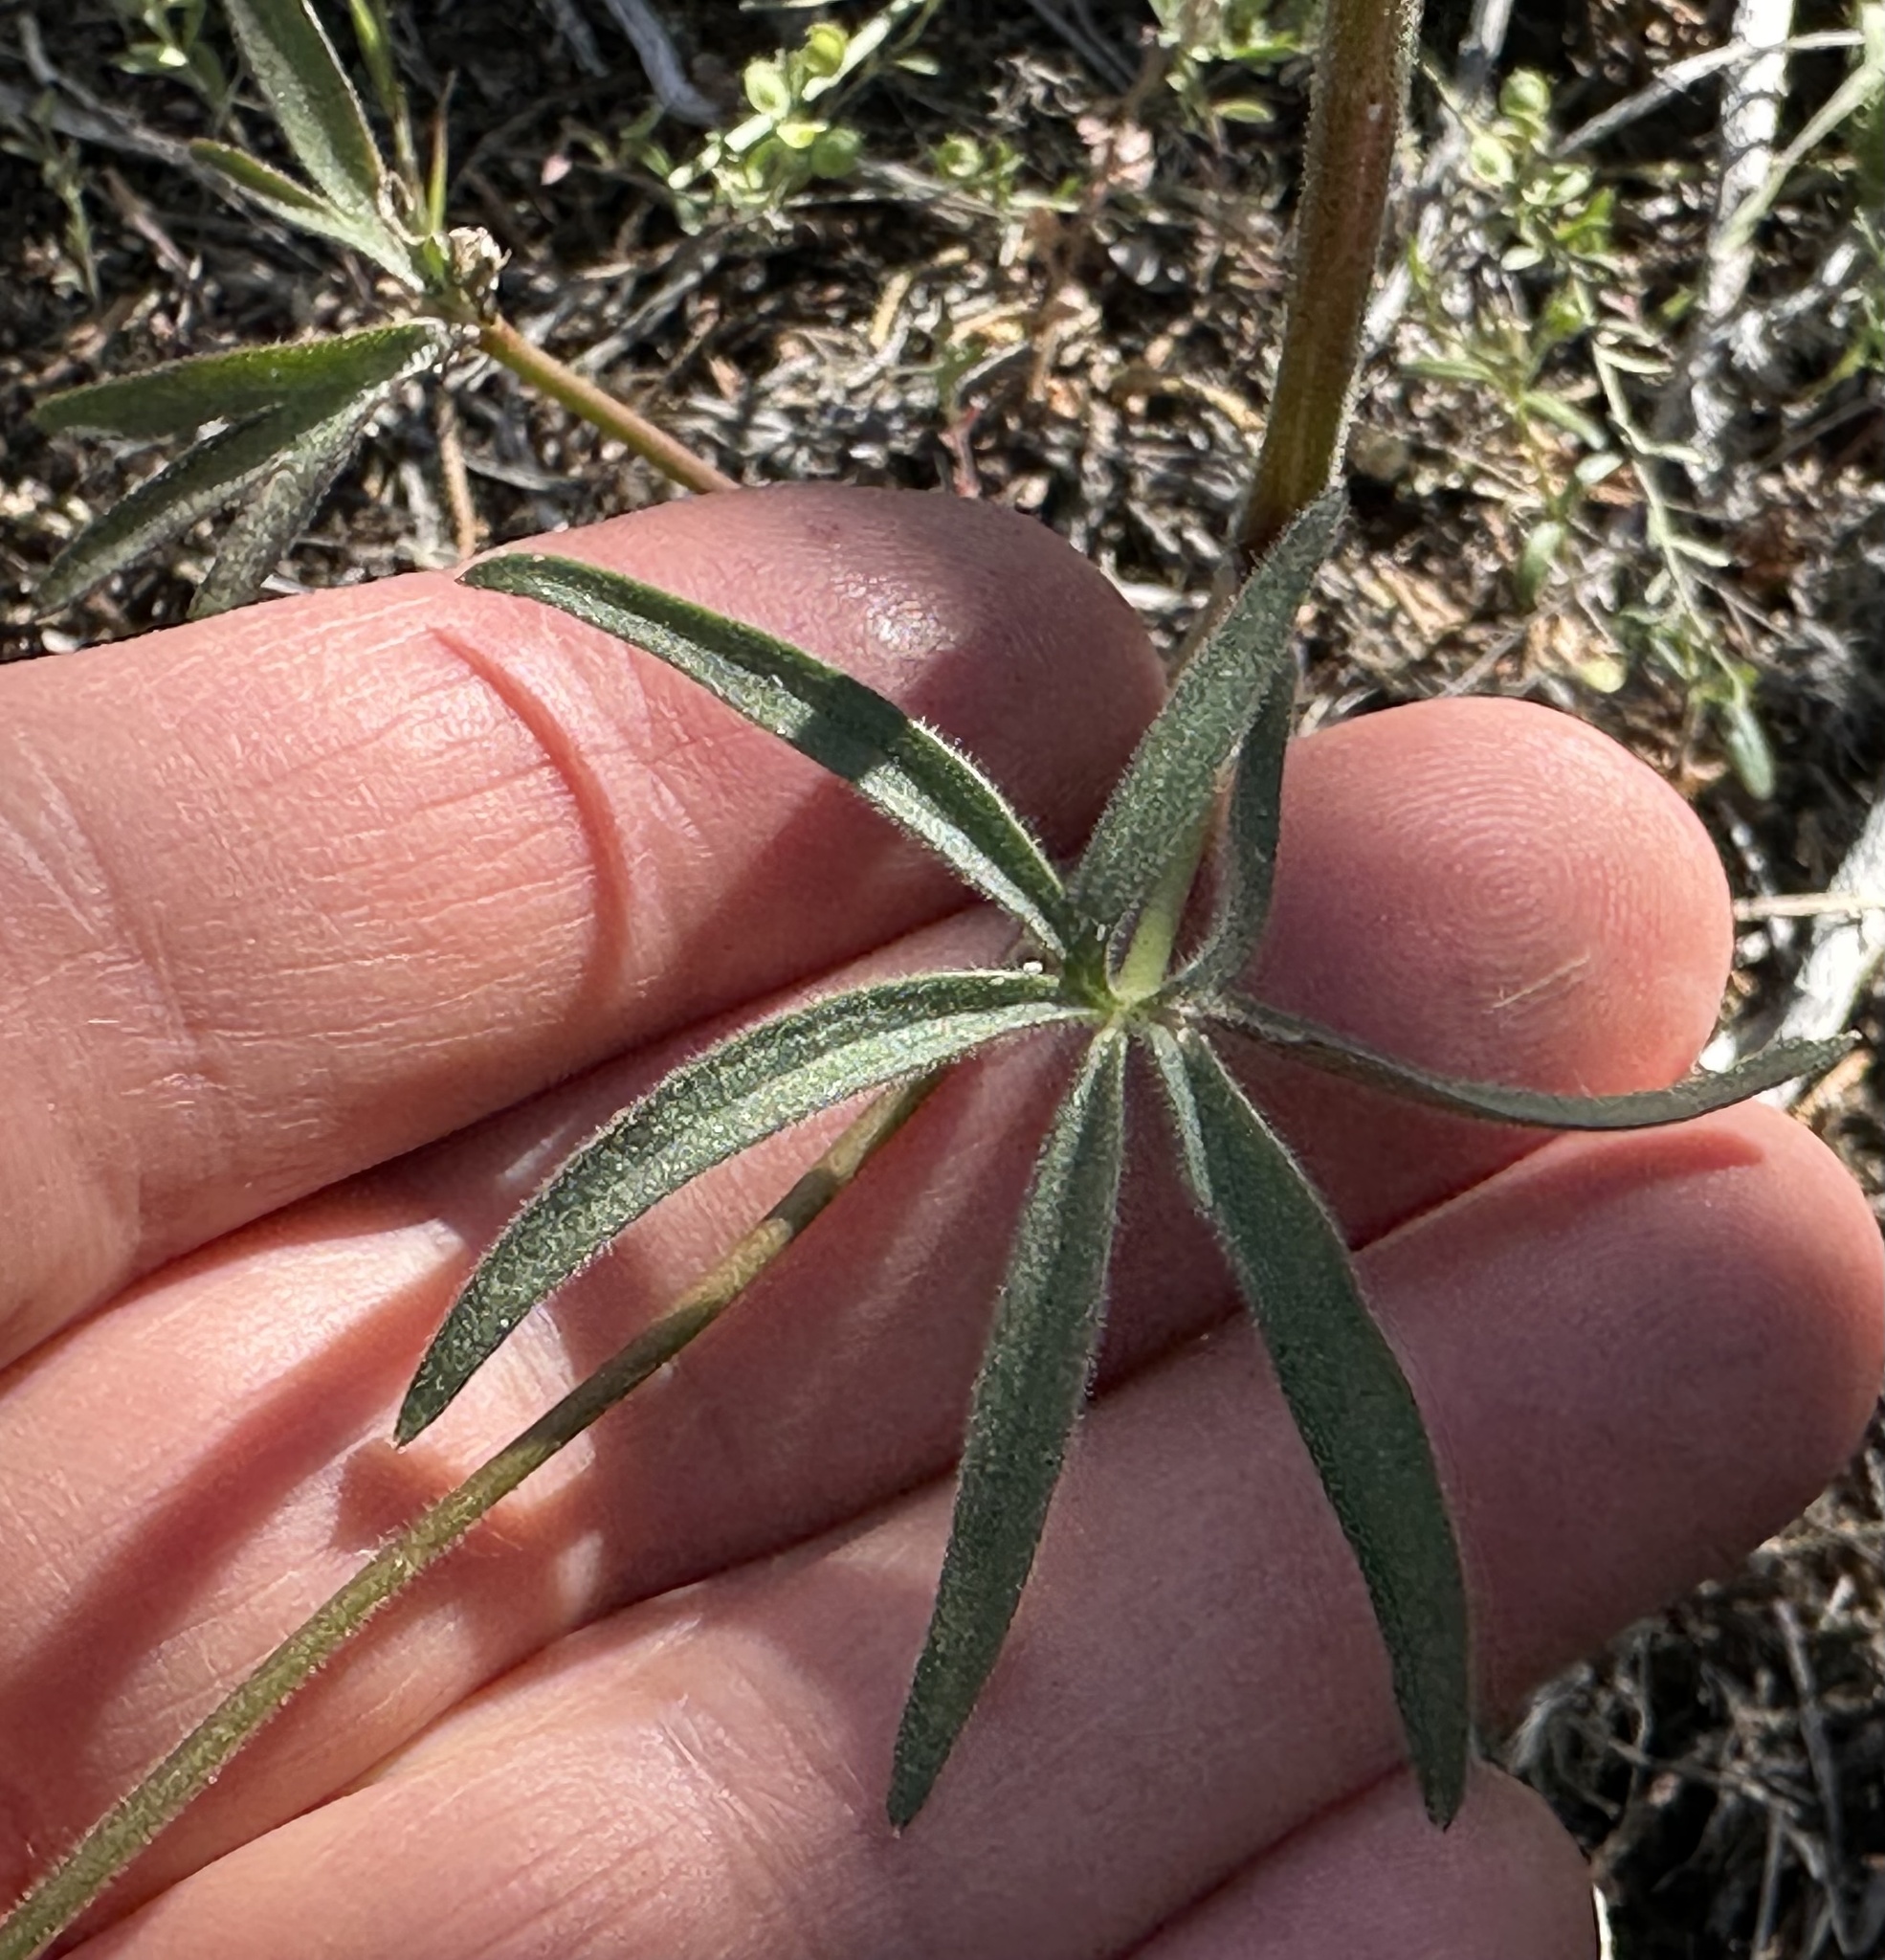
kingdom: Plantae
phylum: Tracheophyta
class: Magnoliopsida
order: Ranunculales
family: Ranunculaceae
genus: Delphinium
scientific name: Delphinium nuttallianum
